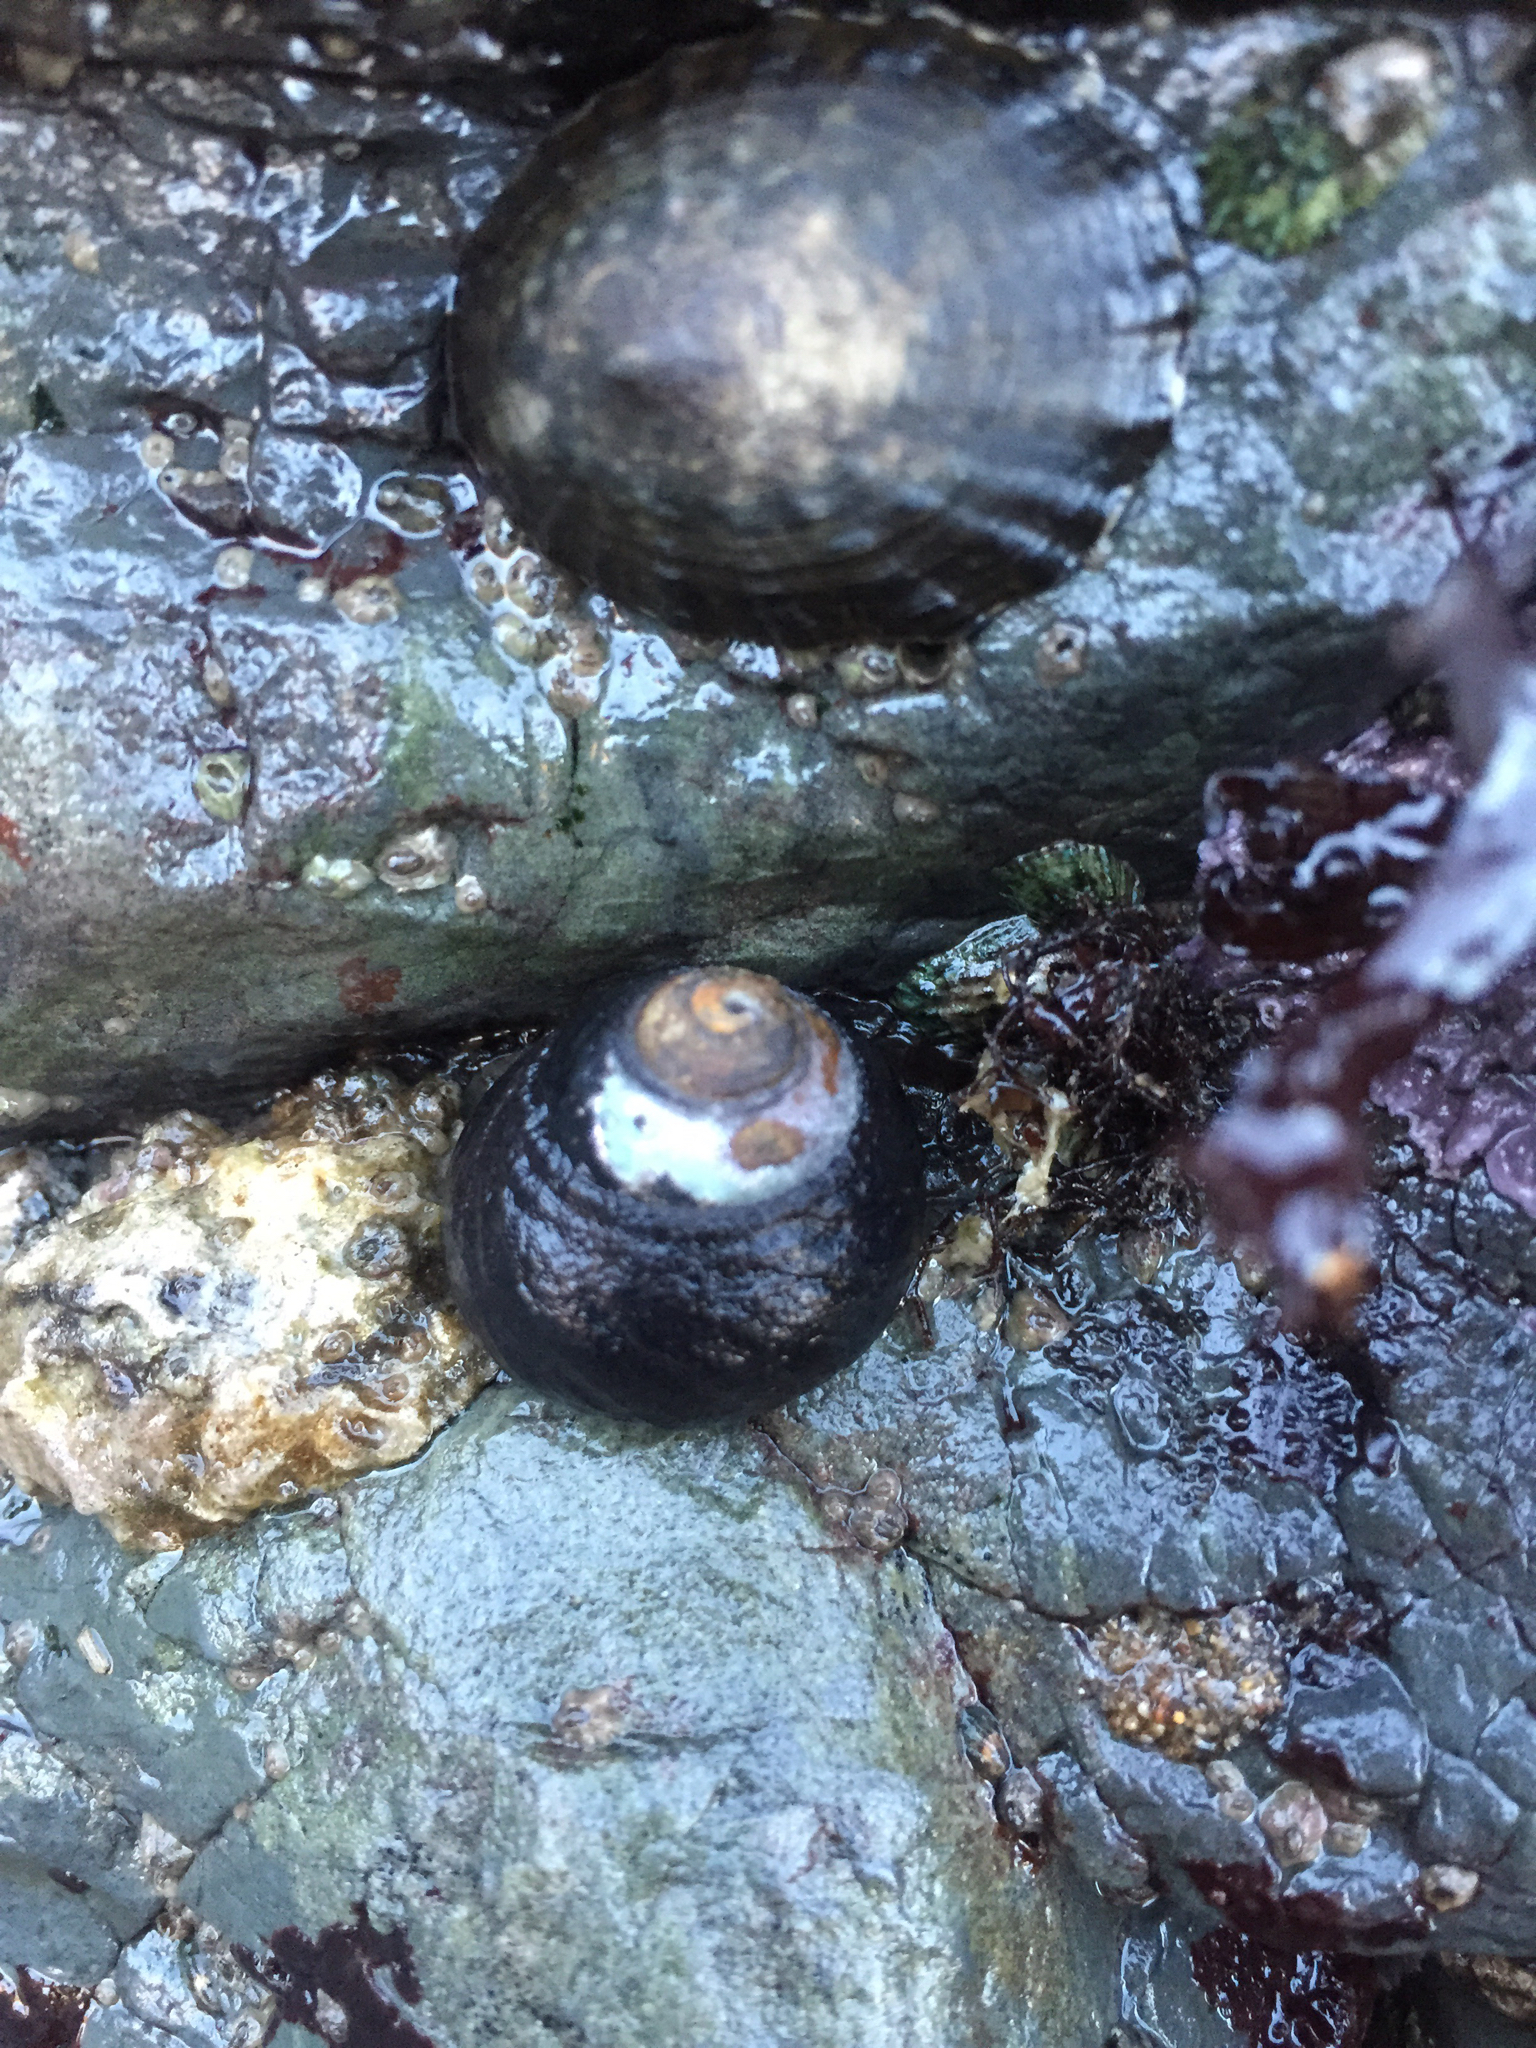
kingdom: Animalia
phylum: Mollusca
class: Gastropoda
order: Trochida
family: Tegulidae
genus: Tegula
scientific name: Tegula funebralis
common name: Black tegula
